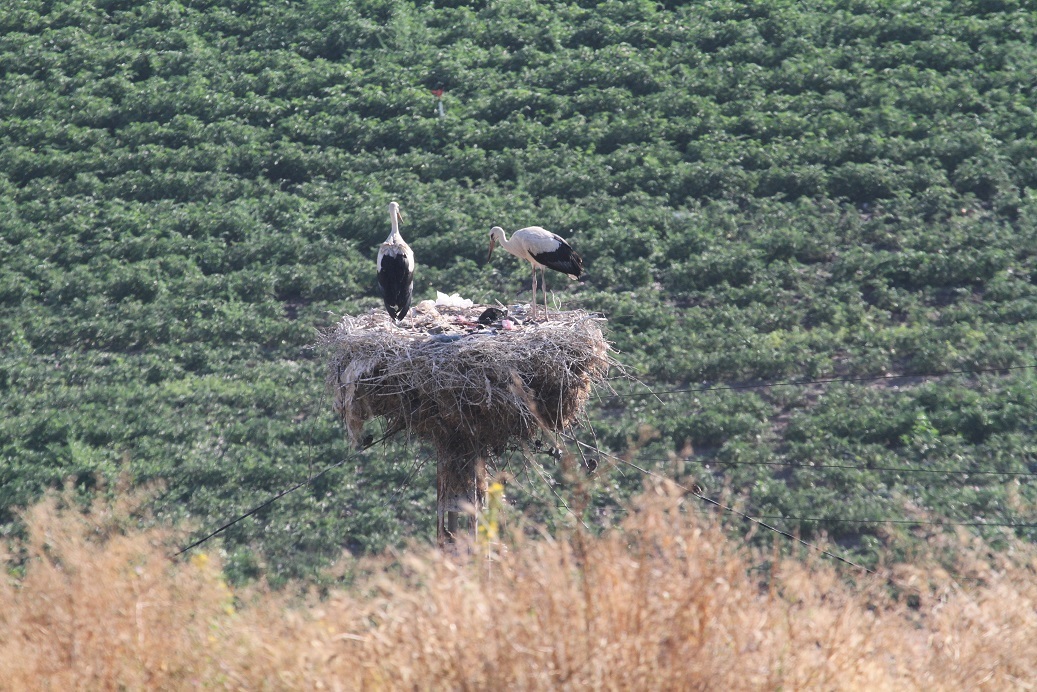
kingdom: Animalia
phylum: Chordata
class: Aves
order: Ciconiiformes
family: Ciconiidae
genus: Ciconia
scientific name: Ciconia ciconia
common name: White stork
